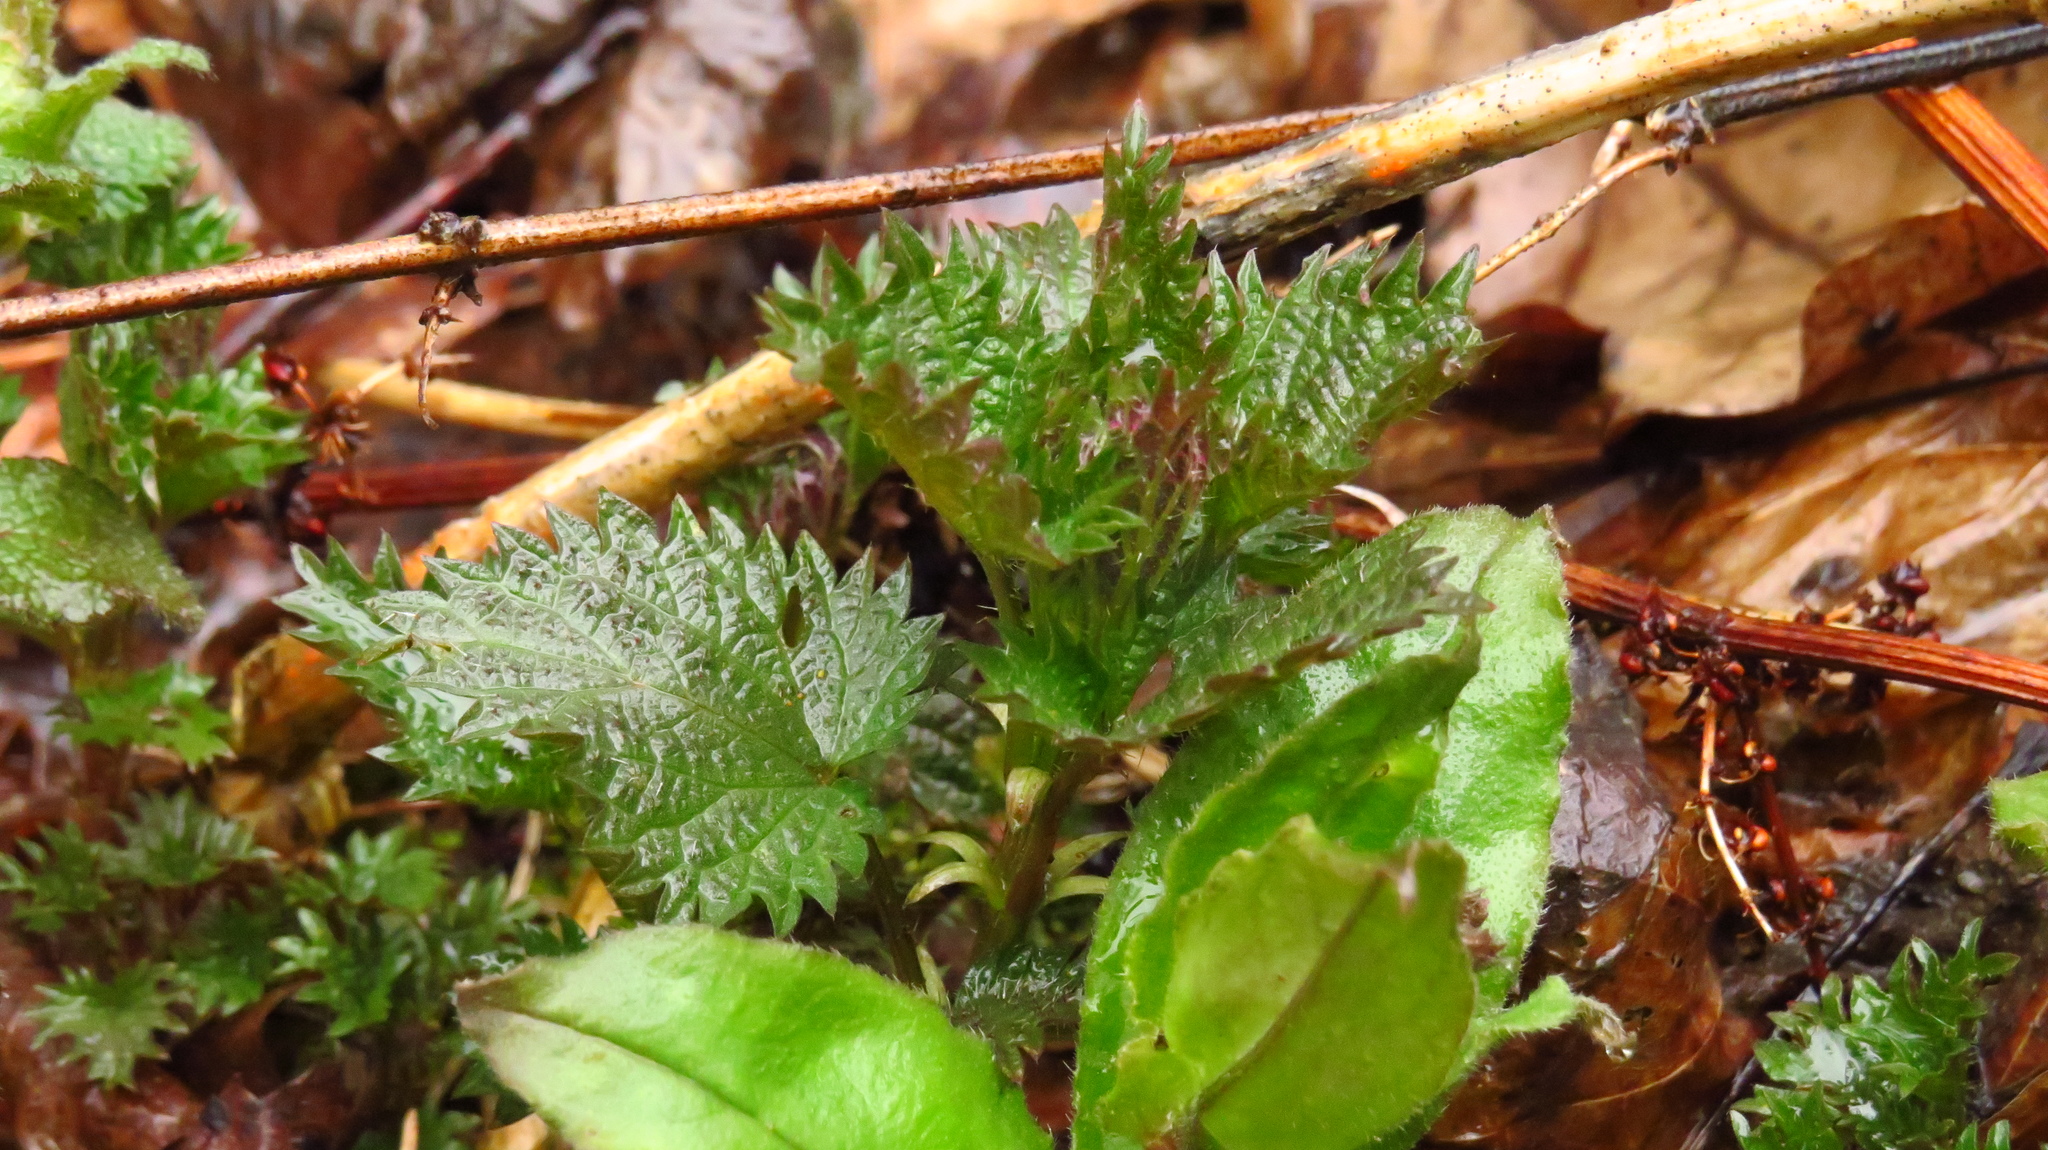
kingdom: Plantae
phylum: Tracheophyta
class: Magnoliopsida
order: Rosales
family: Urticaceae
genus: Urtica
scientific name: Urtica dioica
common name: Common nettle
